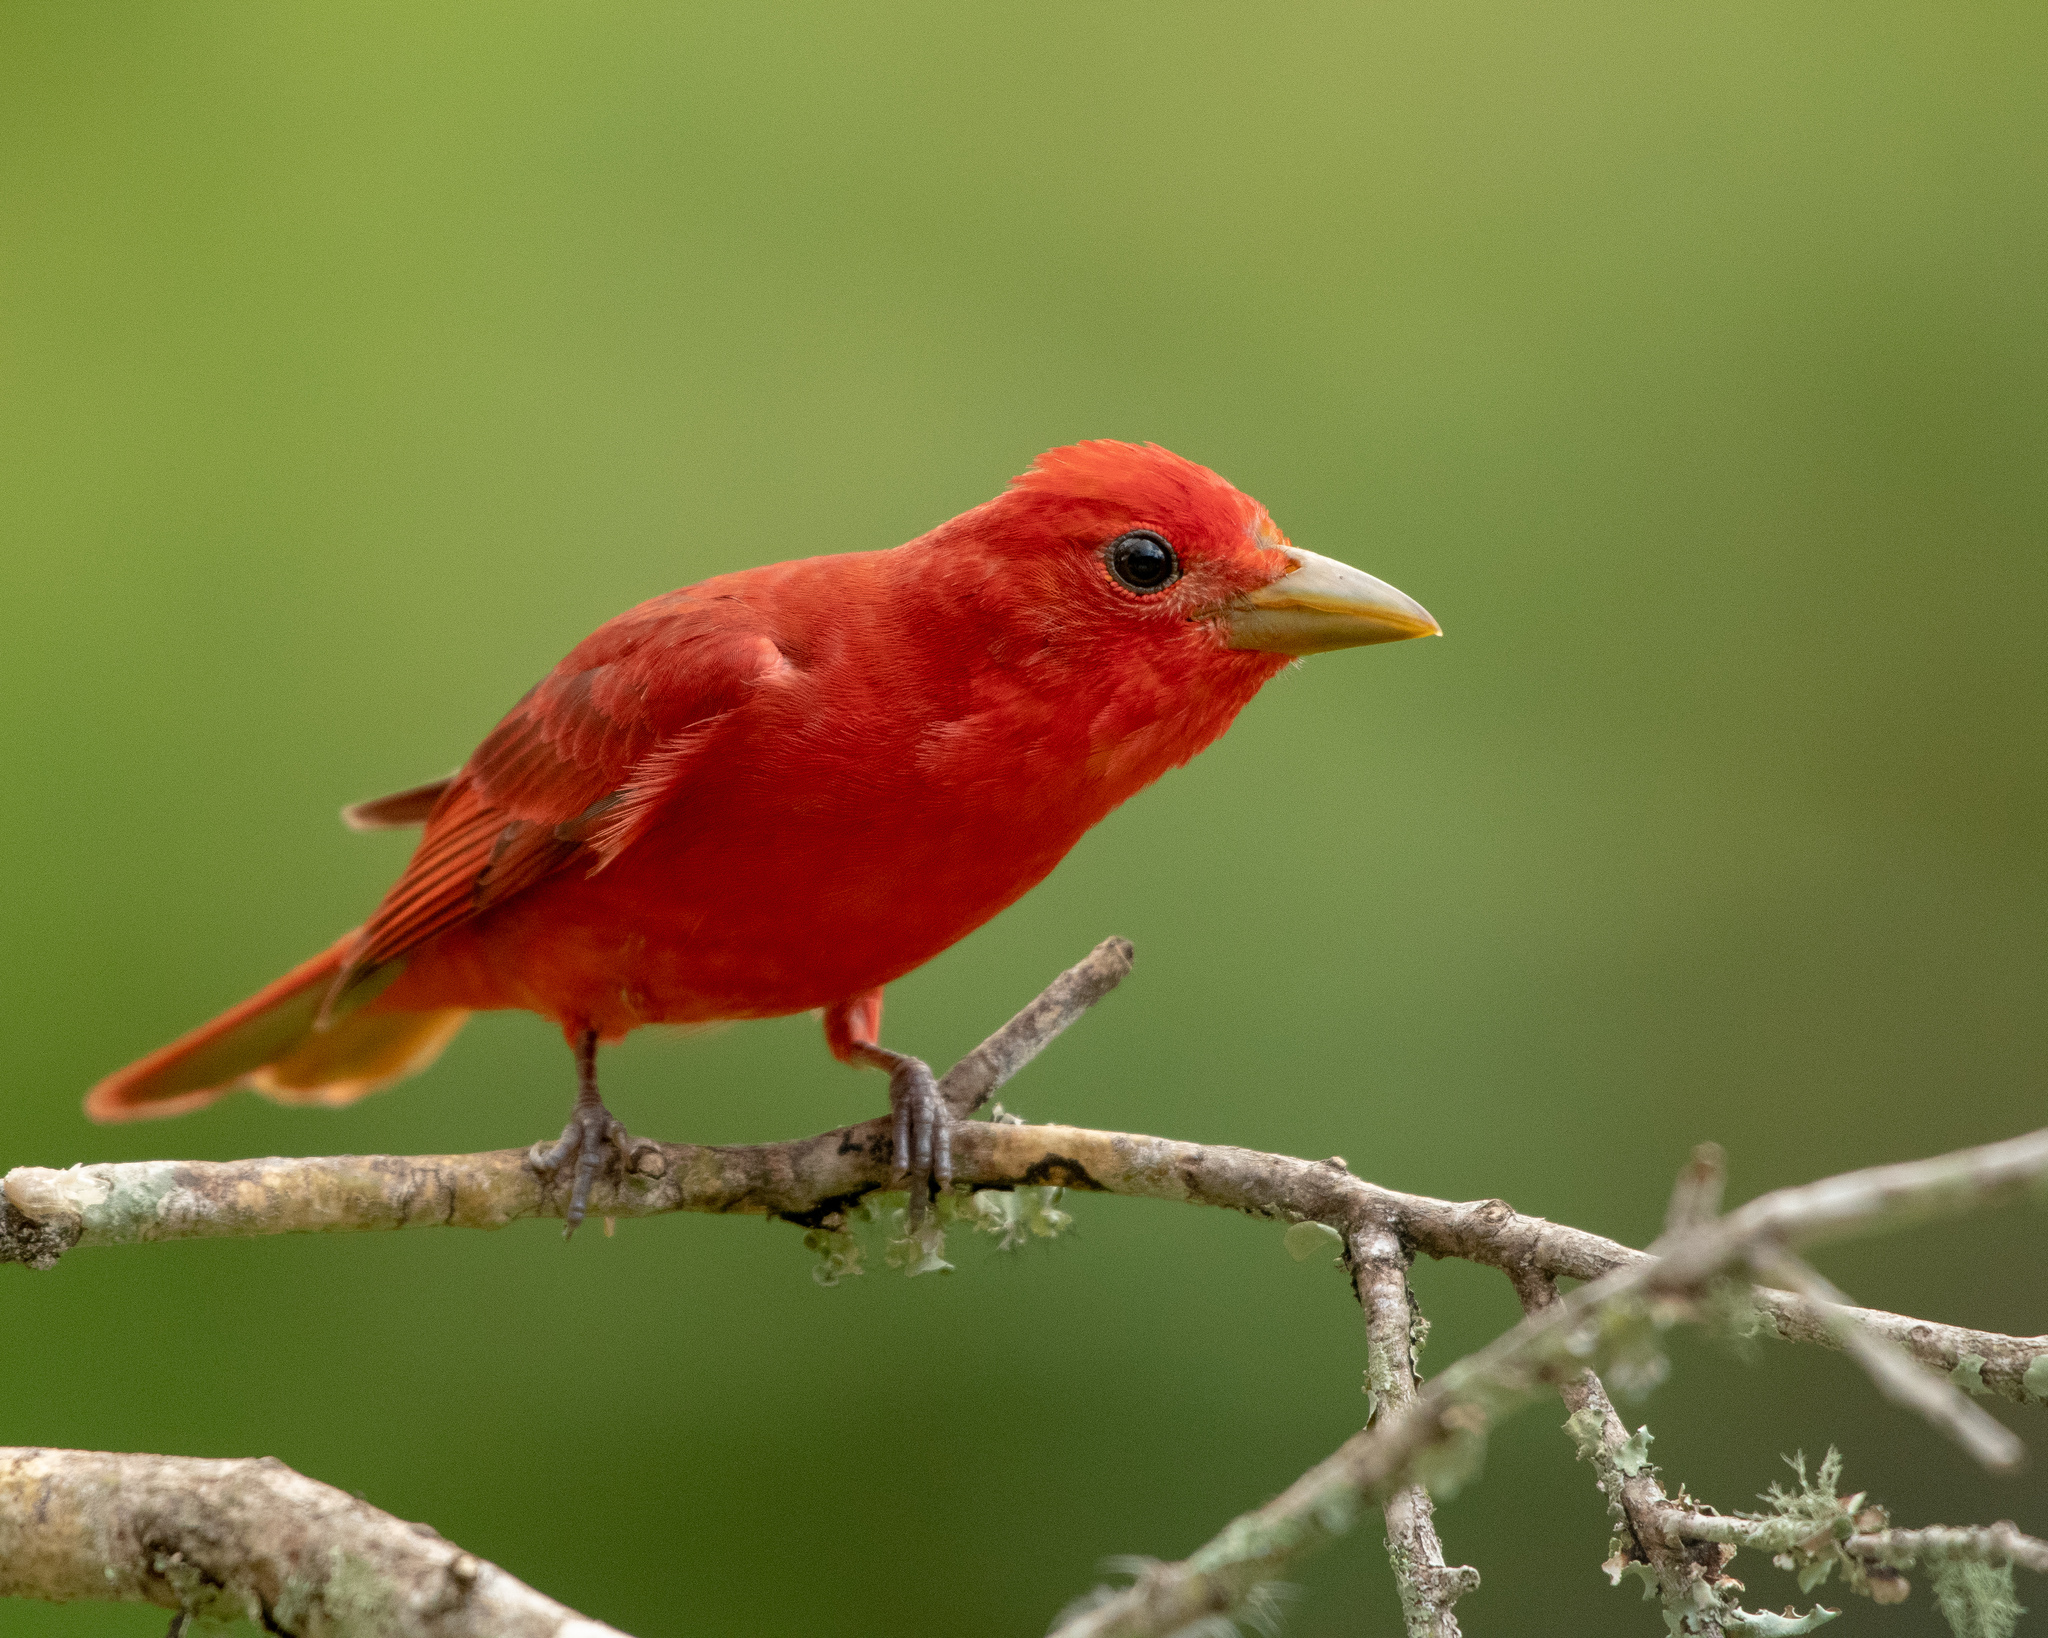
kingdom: Animalia
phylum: Chordata
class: Aves
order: Passeriformes
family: Cardinalidae
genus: Piranga
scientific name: Piranga rubra
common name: Summer tanager
